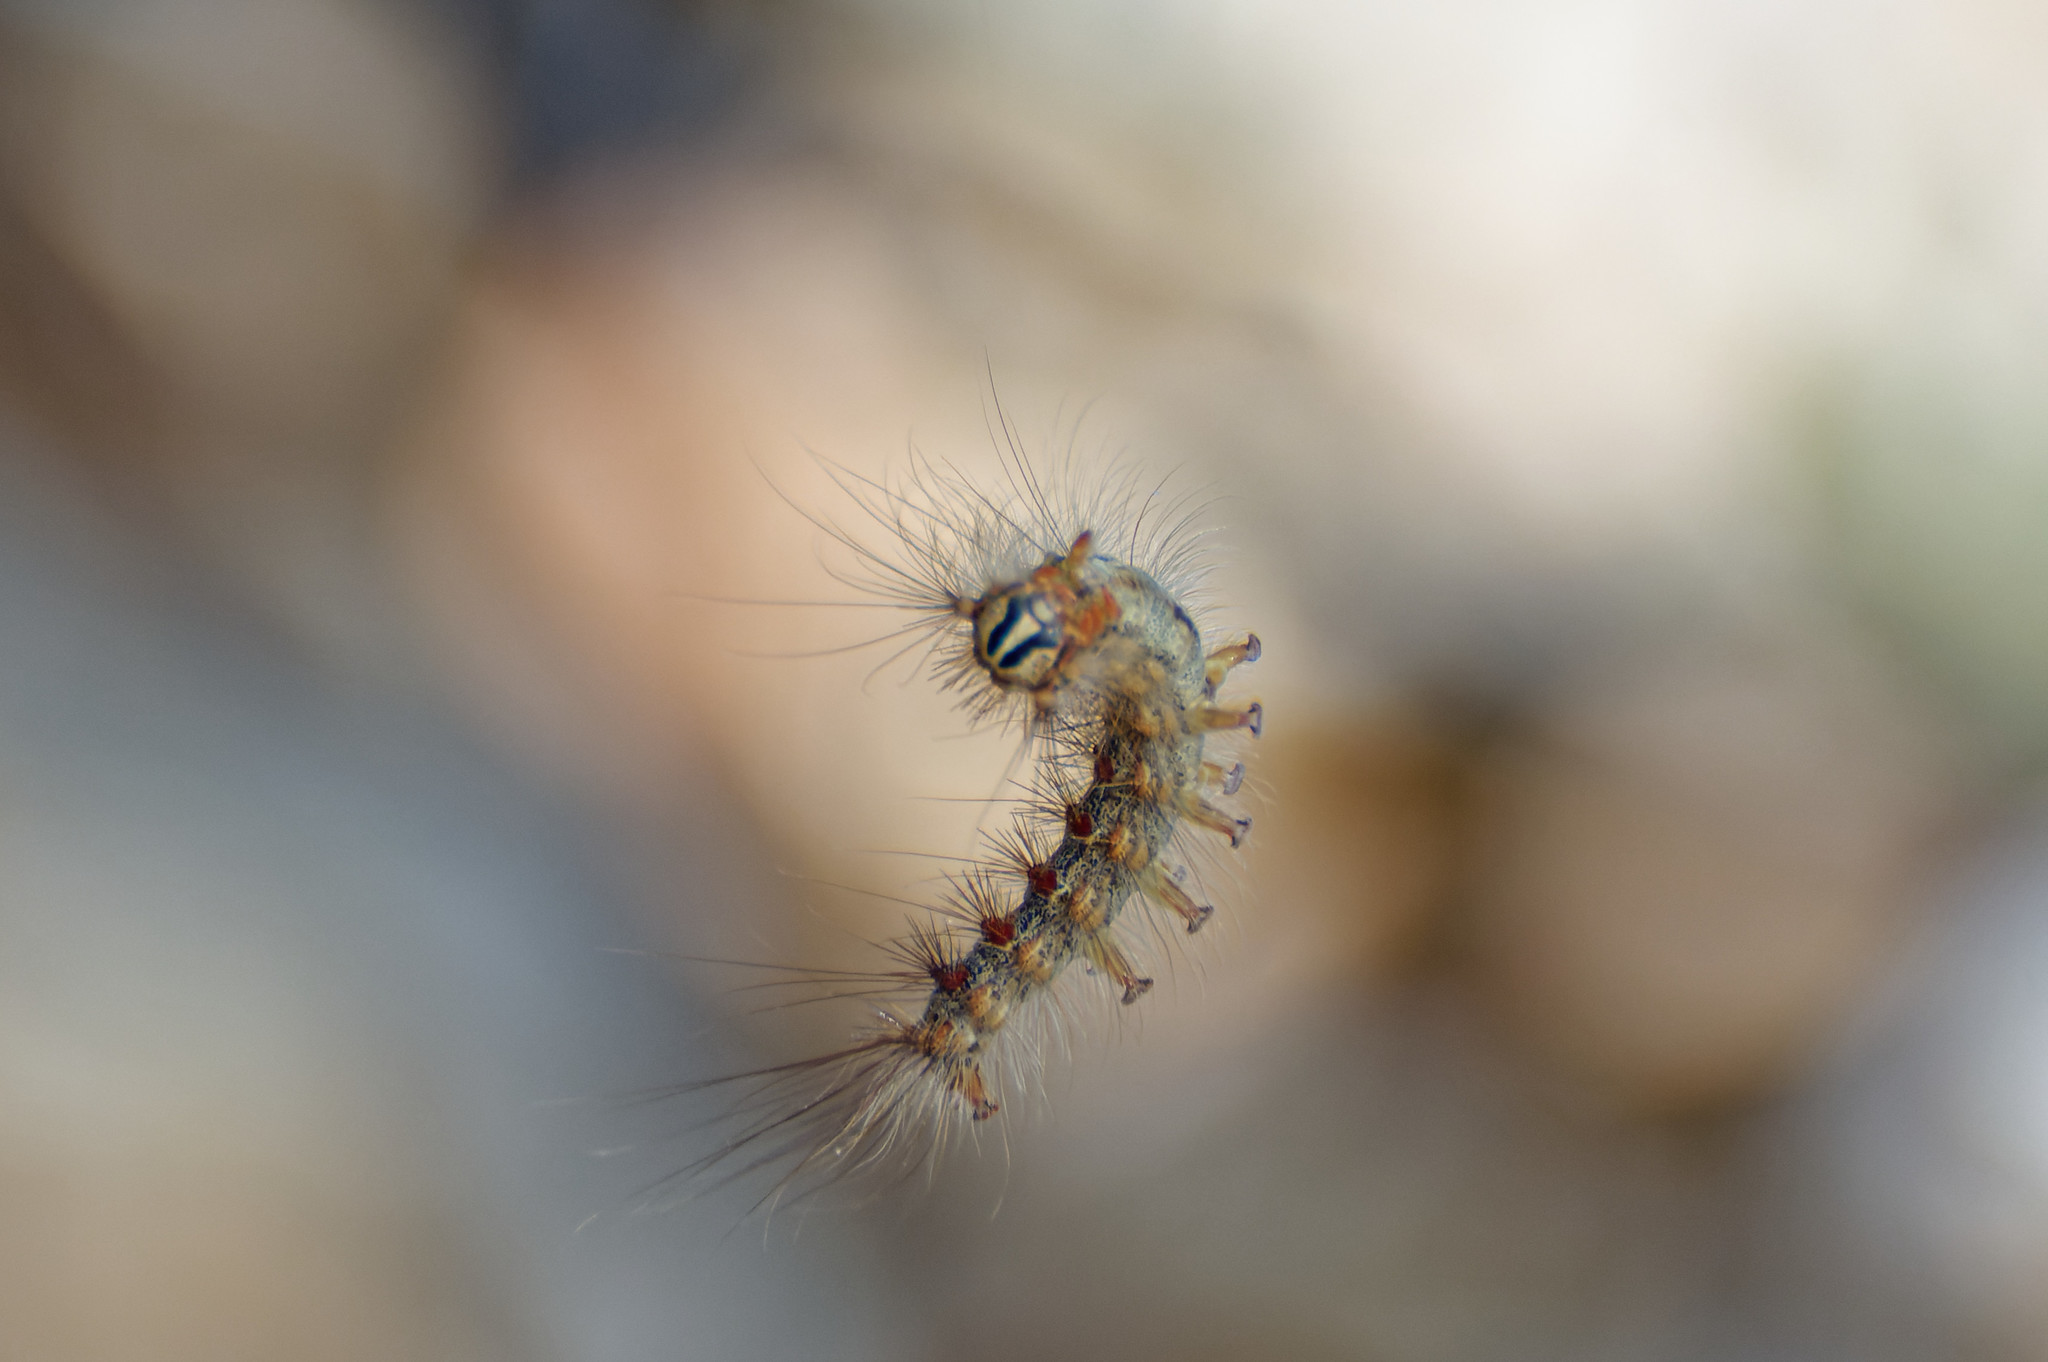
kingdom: Animalia
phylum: Arthropoda
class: Insecta
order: Lepidoptera
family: Erebidae
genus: Lymantria
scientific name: Lymantria dispar
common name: Gypsy moth
